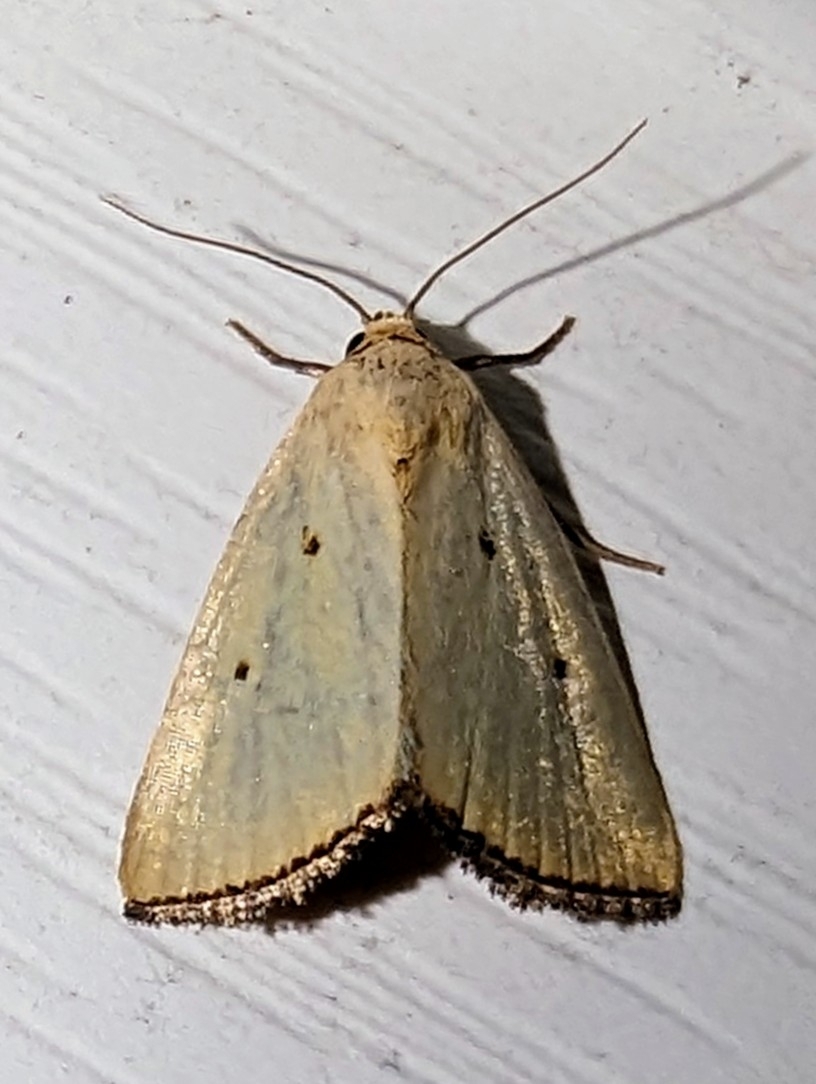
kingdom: Animalia
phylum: Arthropoda
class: Insecta
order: Lepidoptera
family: Noctuidae
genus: Marimatha
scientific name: Marimatha nigrofimbria
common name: Black-bordered lemon moth
